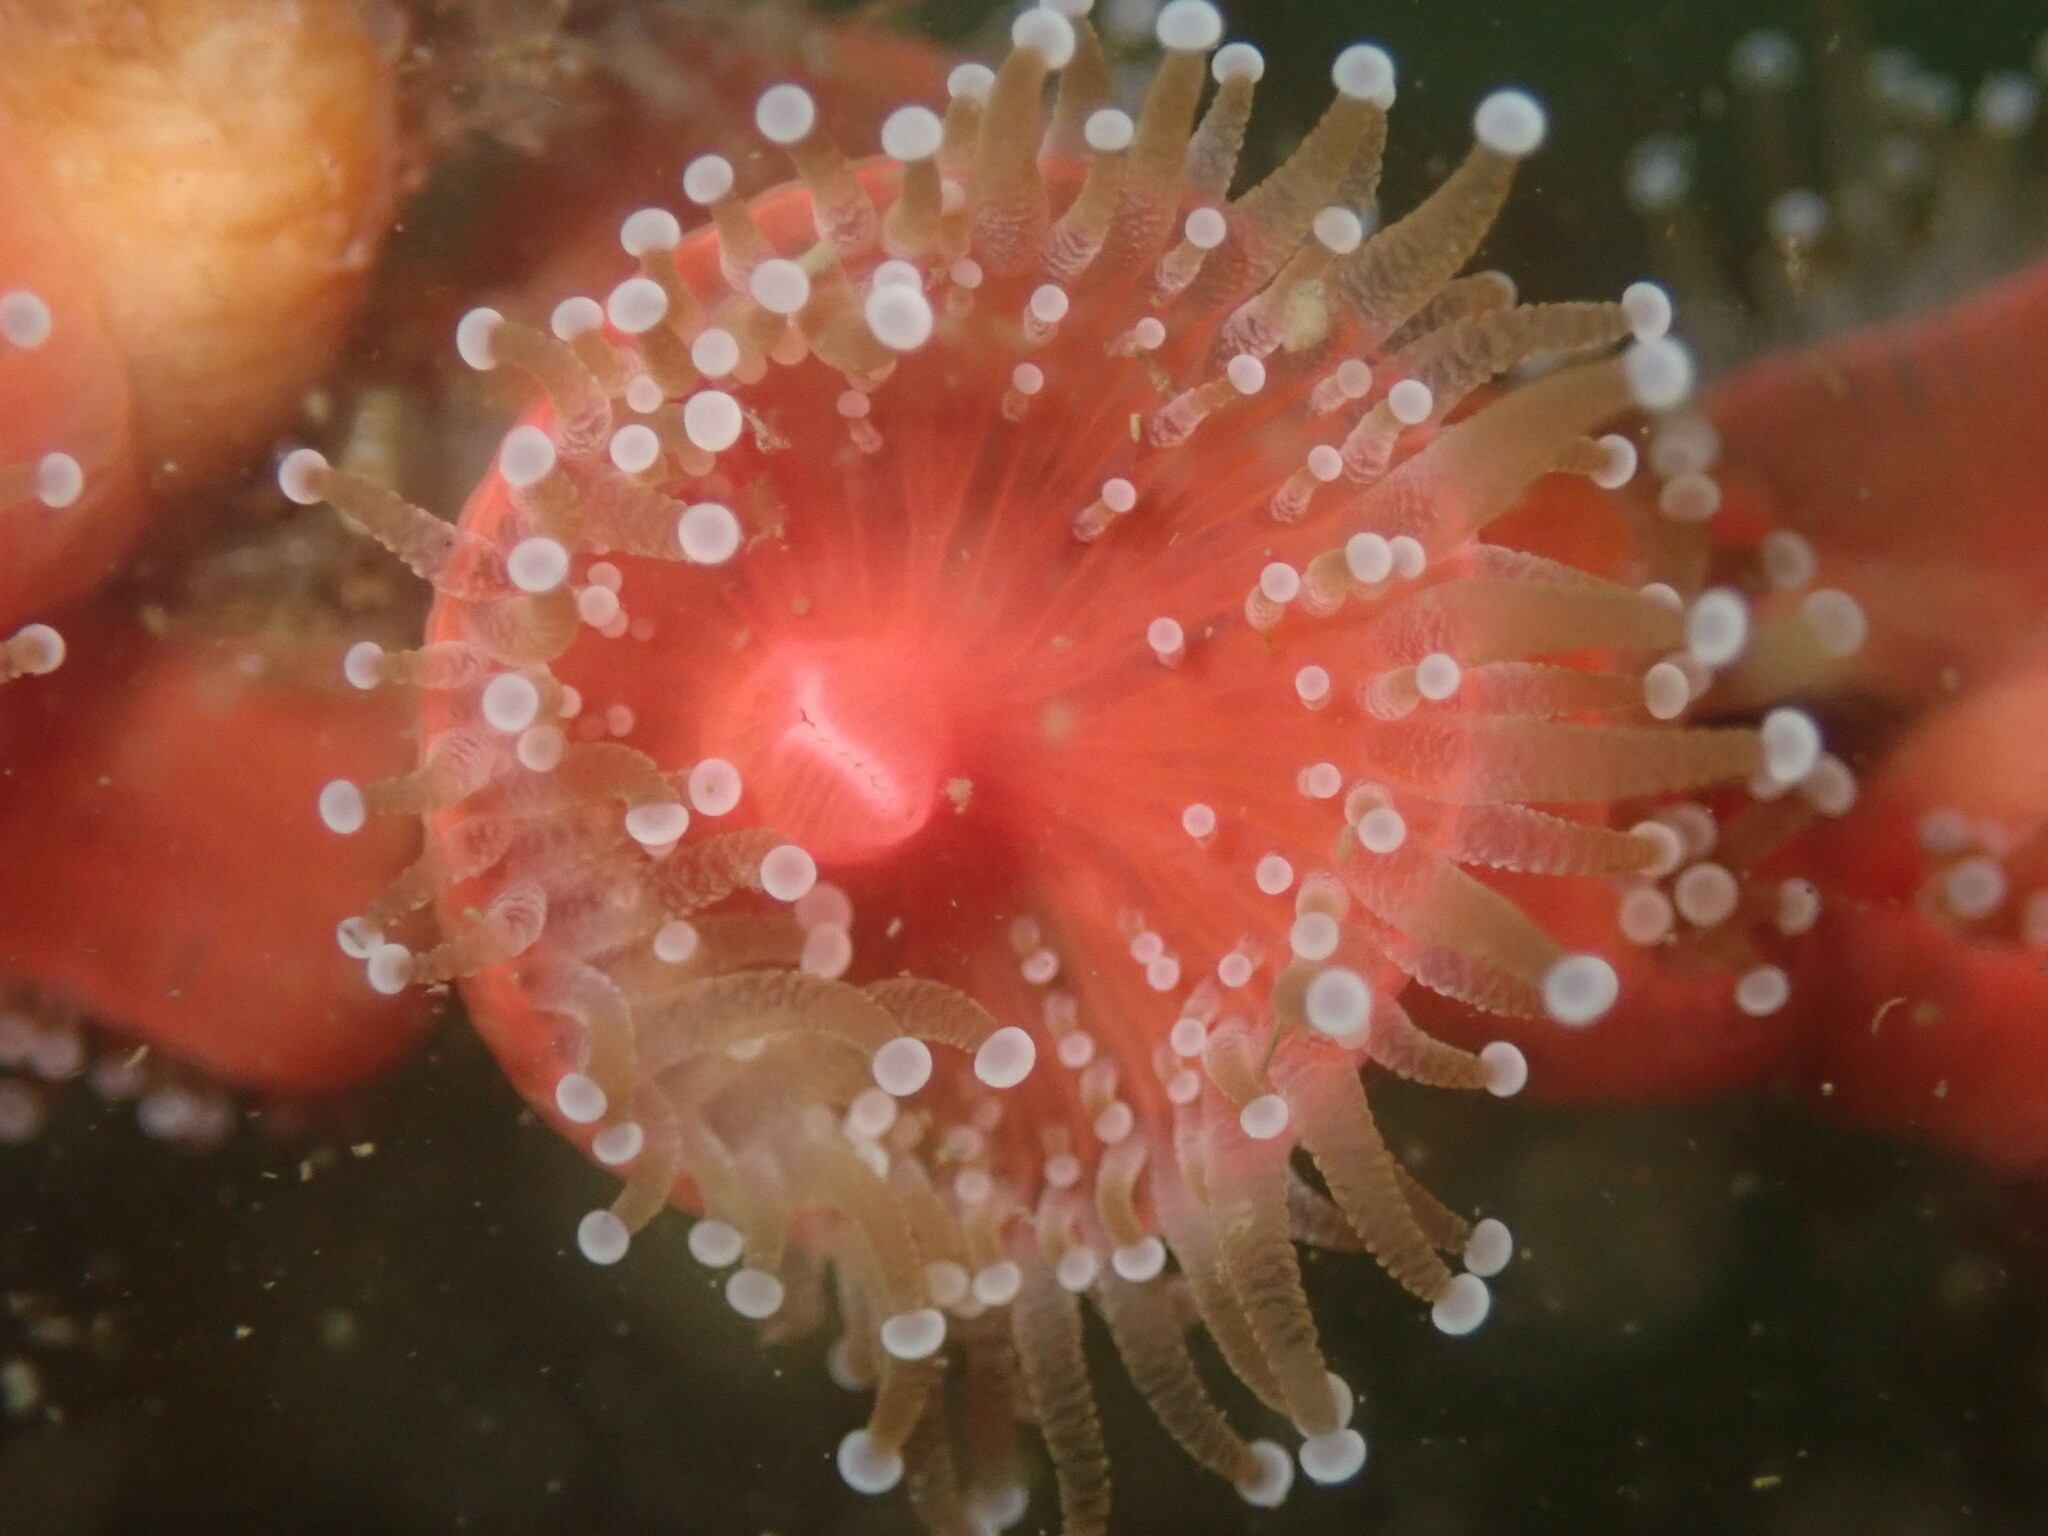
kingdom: Animalia
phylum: Cnidaria
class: Anthozoa
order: Corallimorpharia
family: Corallimorphidae
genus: Corynactis
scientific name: Corynactis californica
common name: Strawberry corallimorpharian
